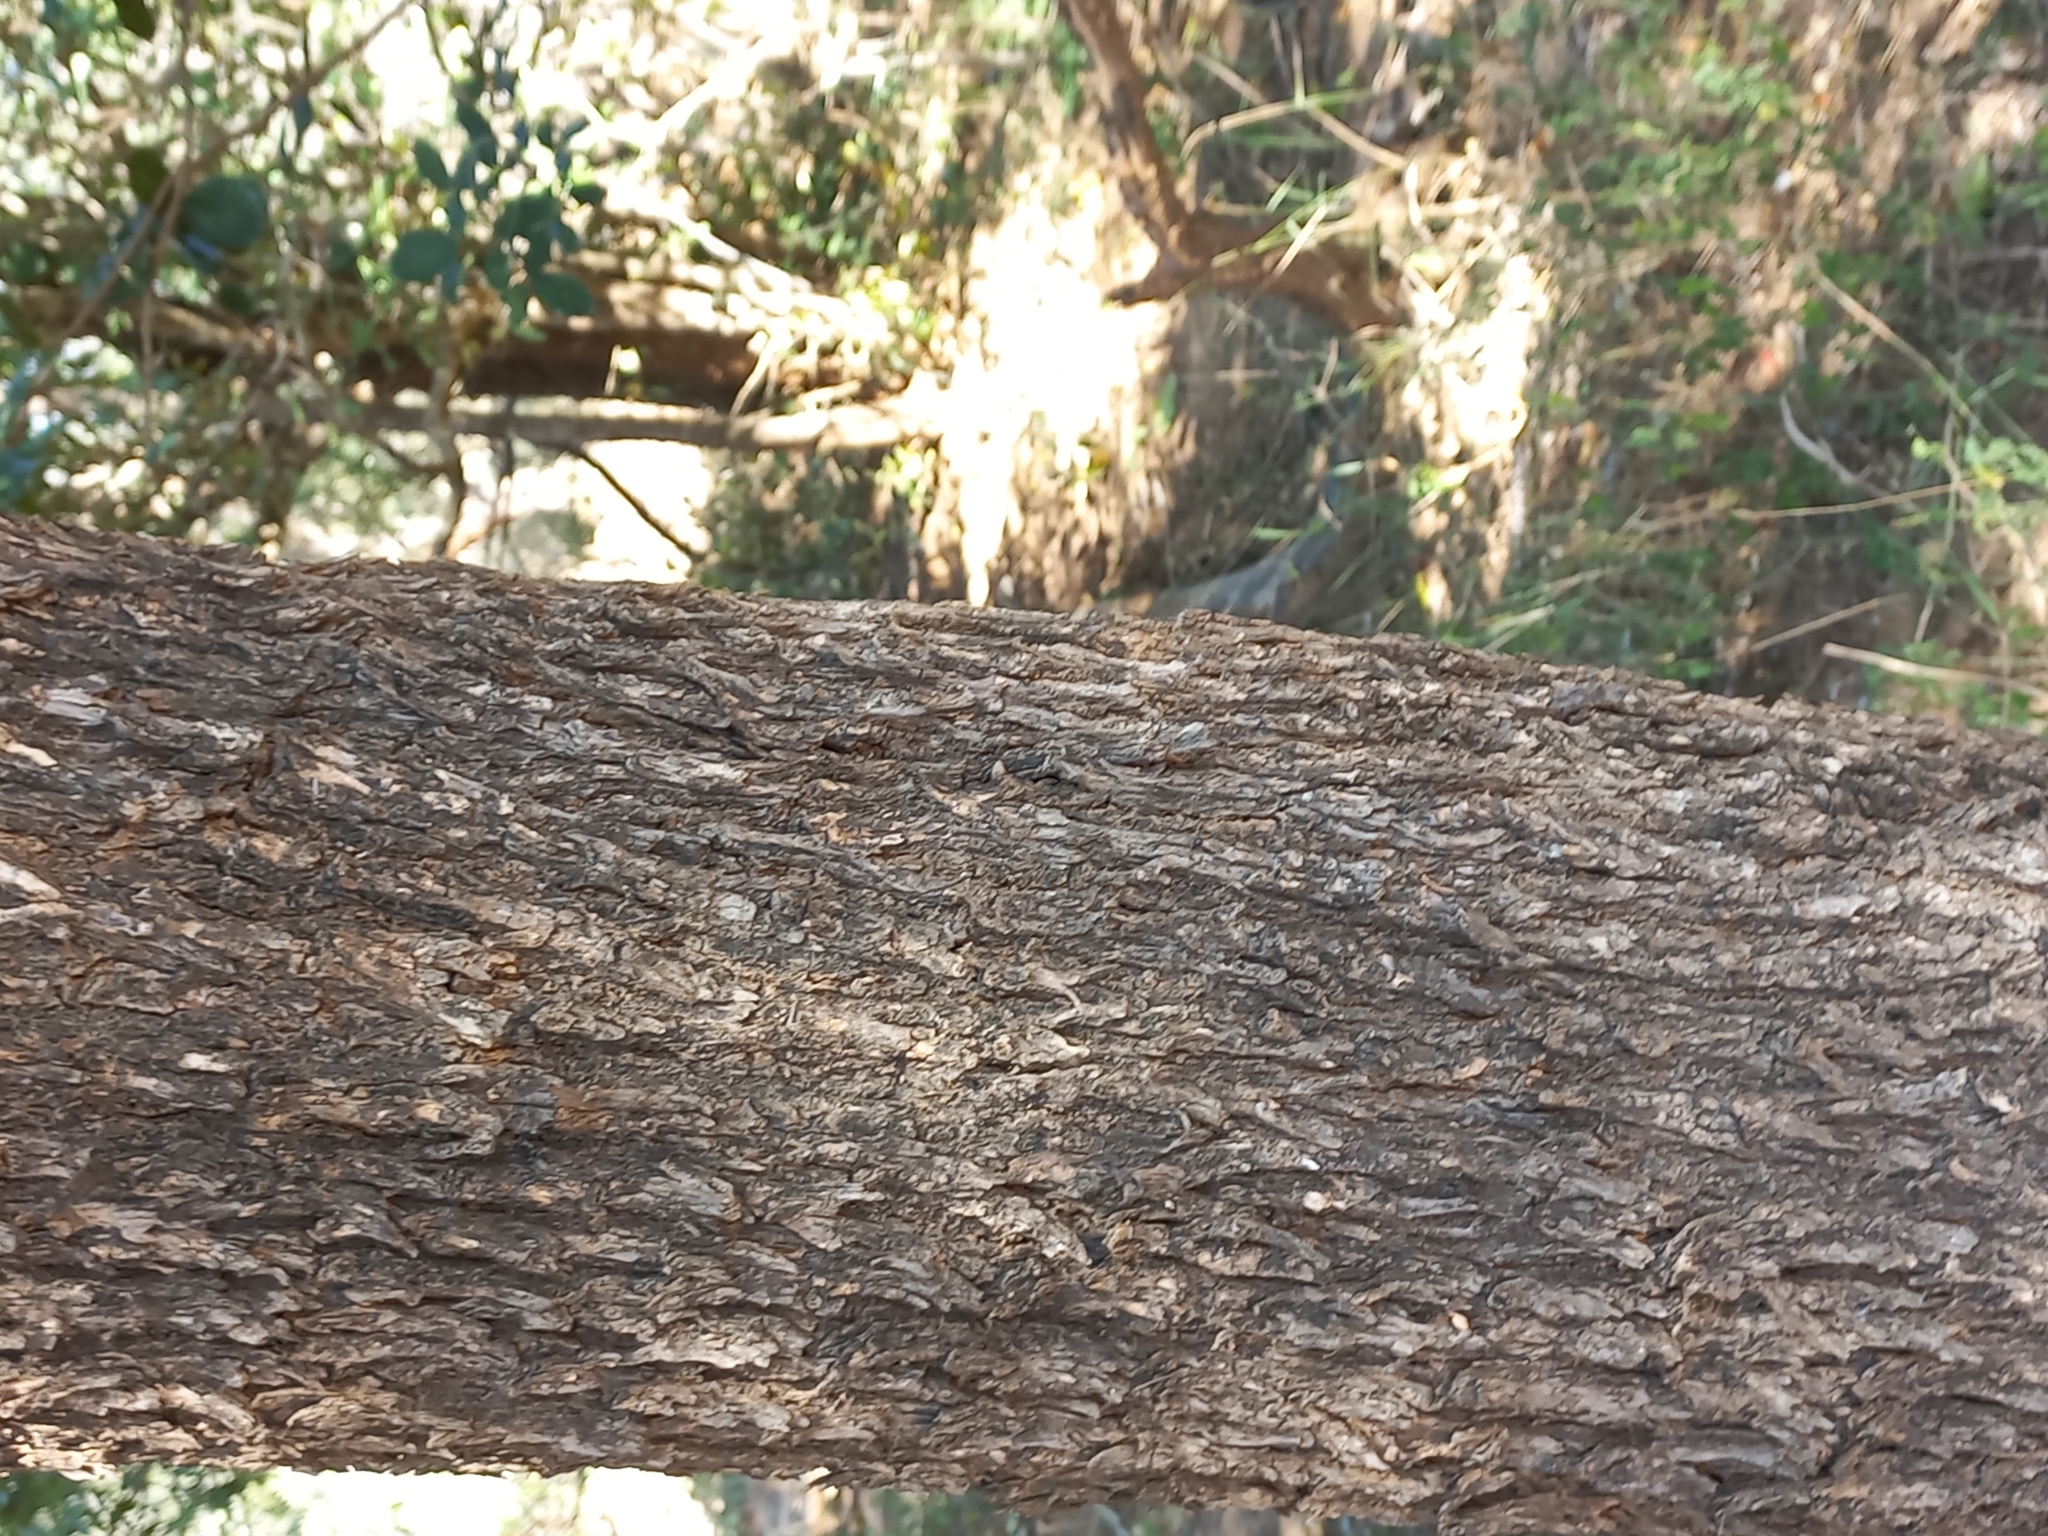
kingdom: Plantae
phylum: Tracheophyta
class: Magnoliopsida
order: Malpighiales
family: Euphorbiaceae
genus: Spirostachys
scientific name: Spirostachys africana
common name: Tamboti
